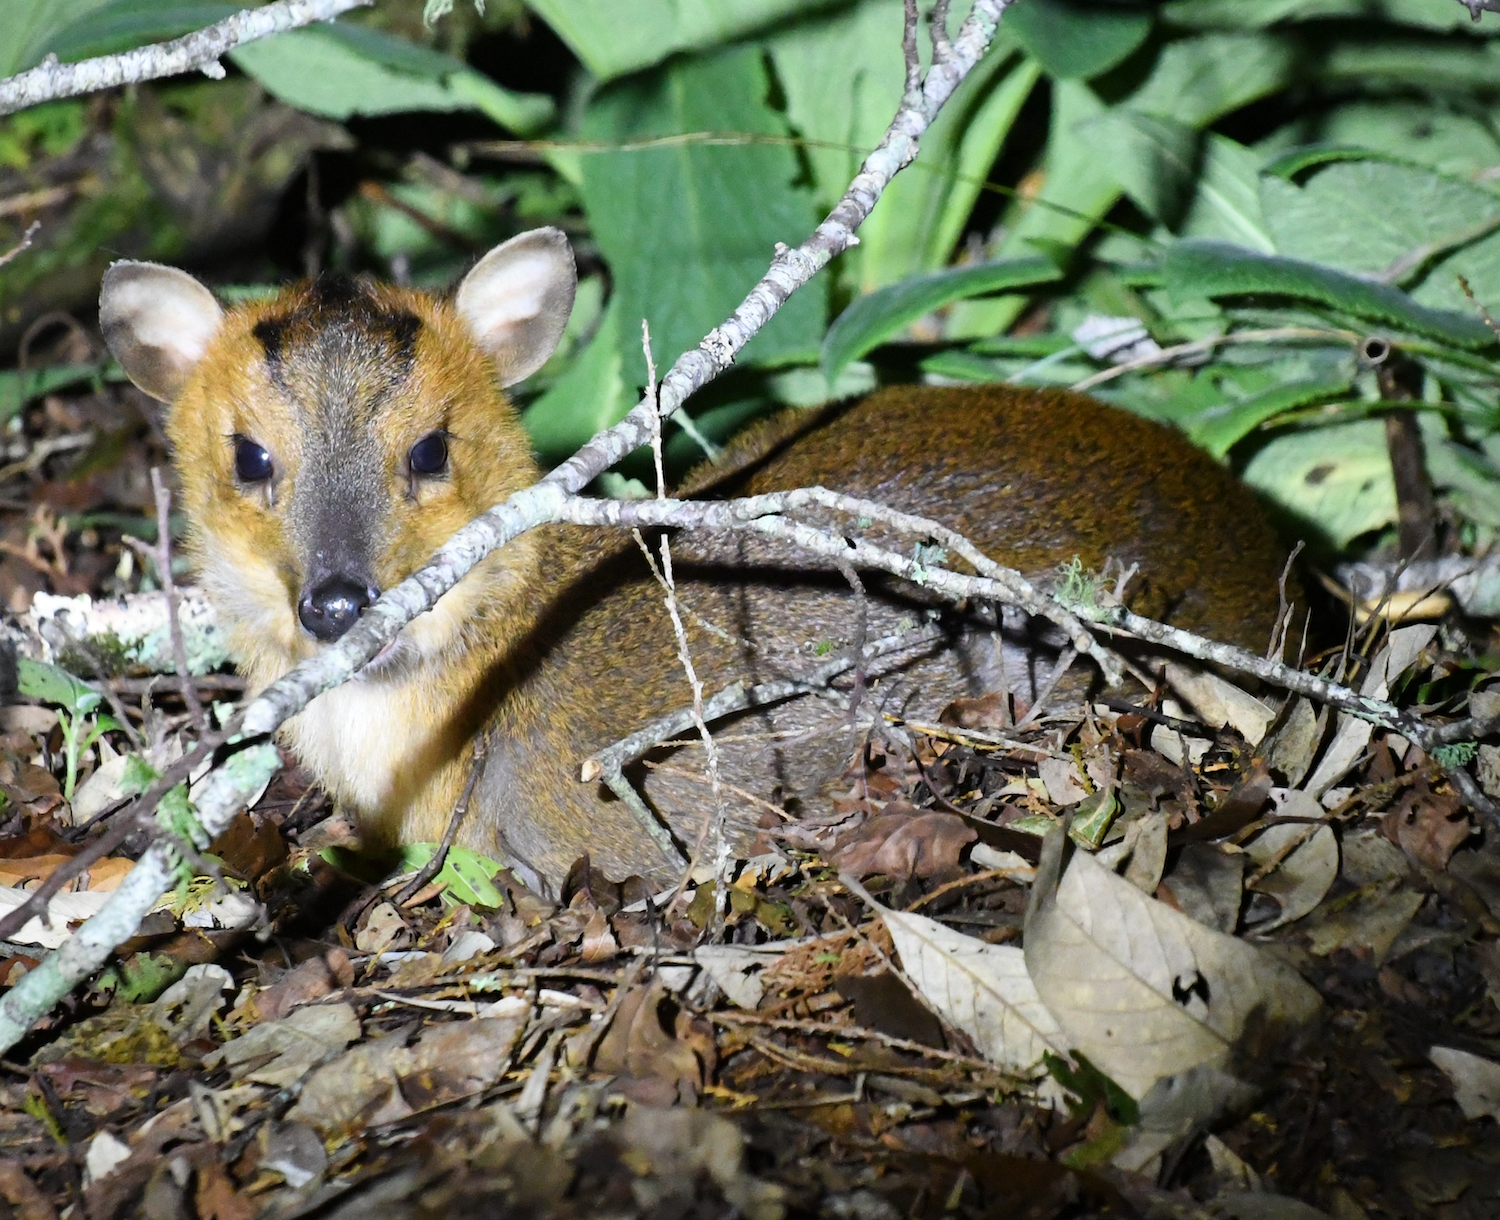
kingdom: Animalia
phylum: Chordata
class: Mammalia
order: Artiodactyla
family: Cervidae
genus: Muntiacus
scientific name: Muntiacus reevesi
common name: Reeves' muntjac
